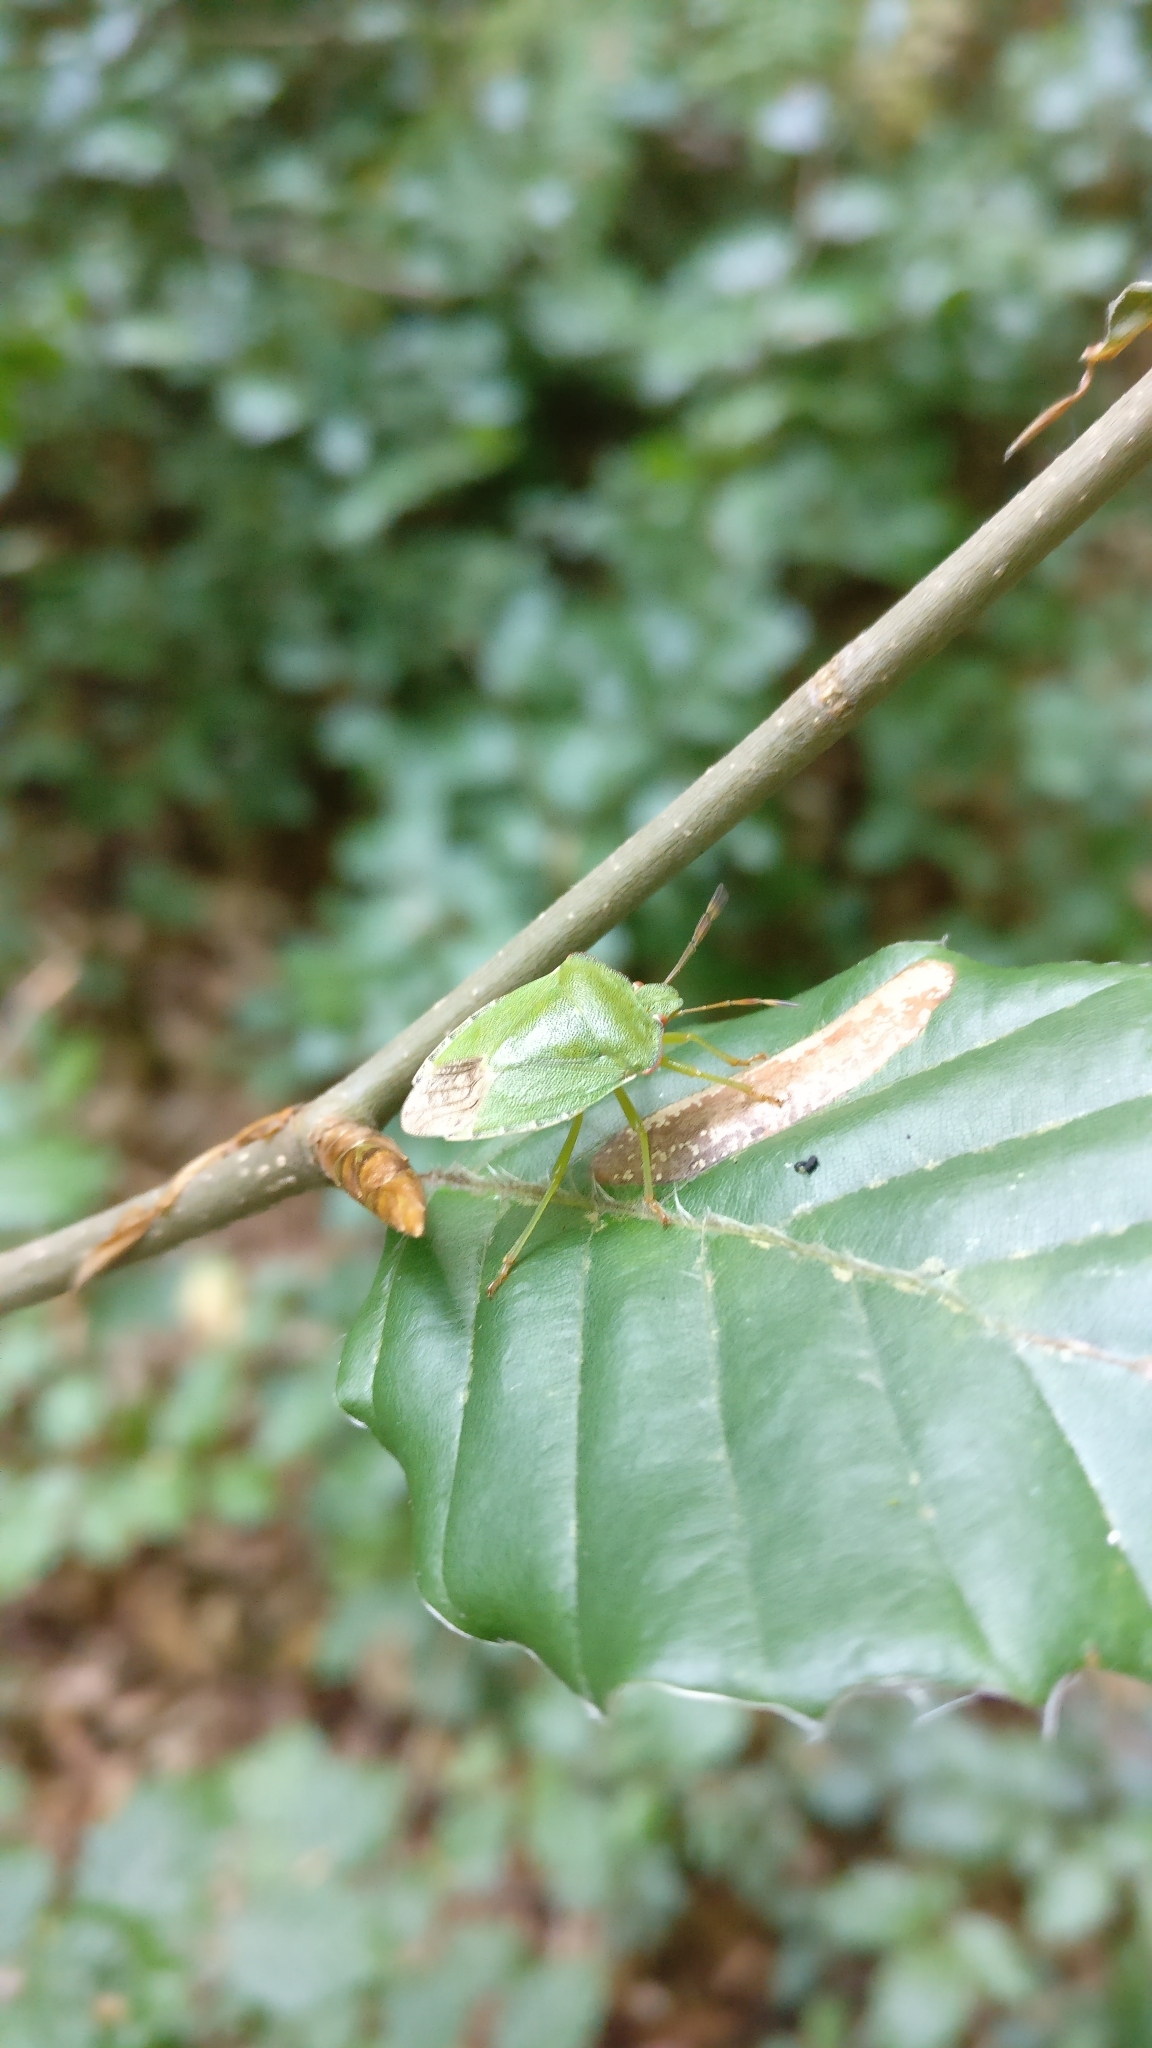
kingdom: Animalia
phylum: Arthropoda
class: Insecta
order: Hemiptera
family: Pentatomidae
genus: Palomena
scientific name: Palomena prasina
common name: Green shieldbug
